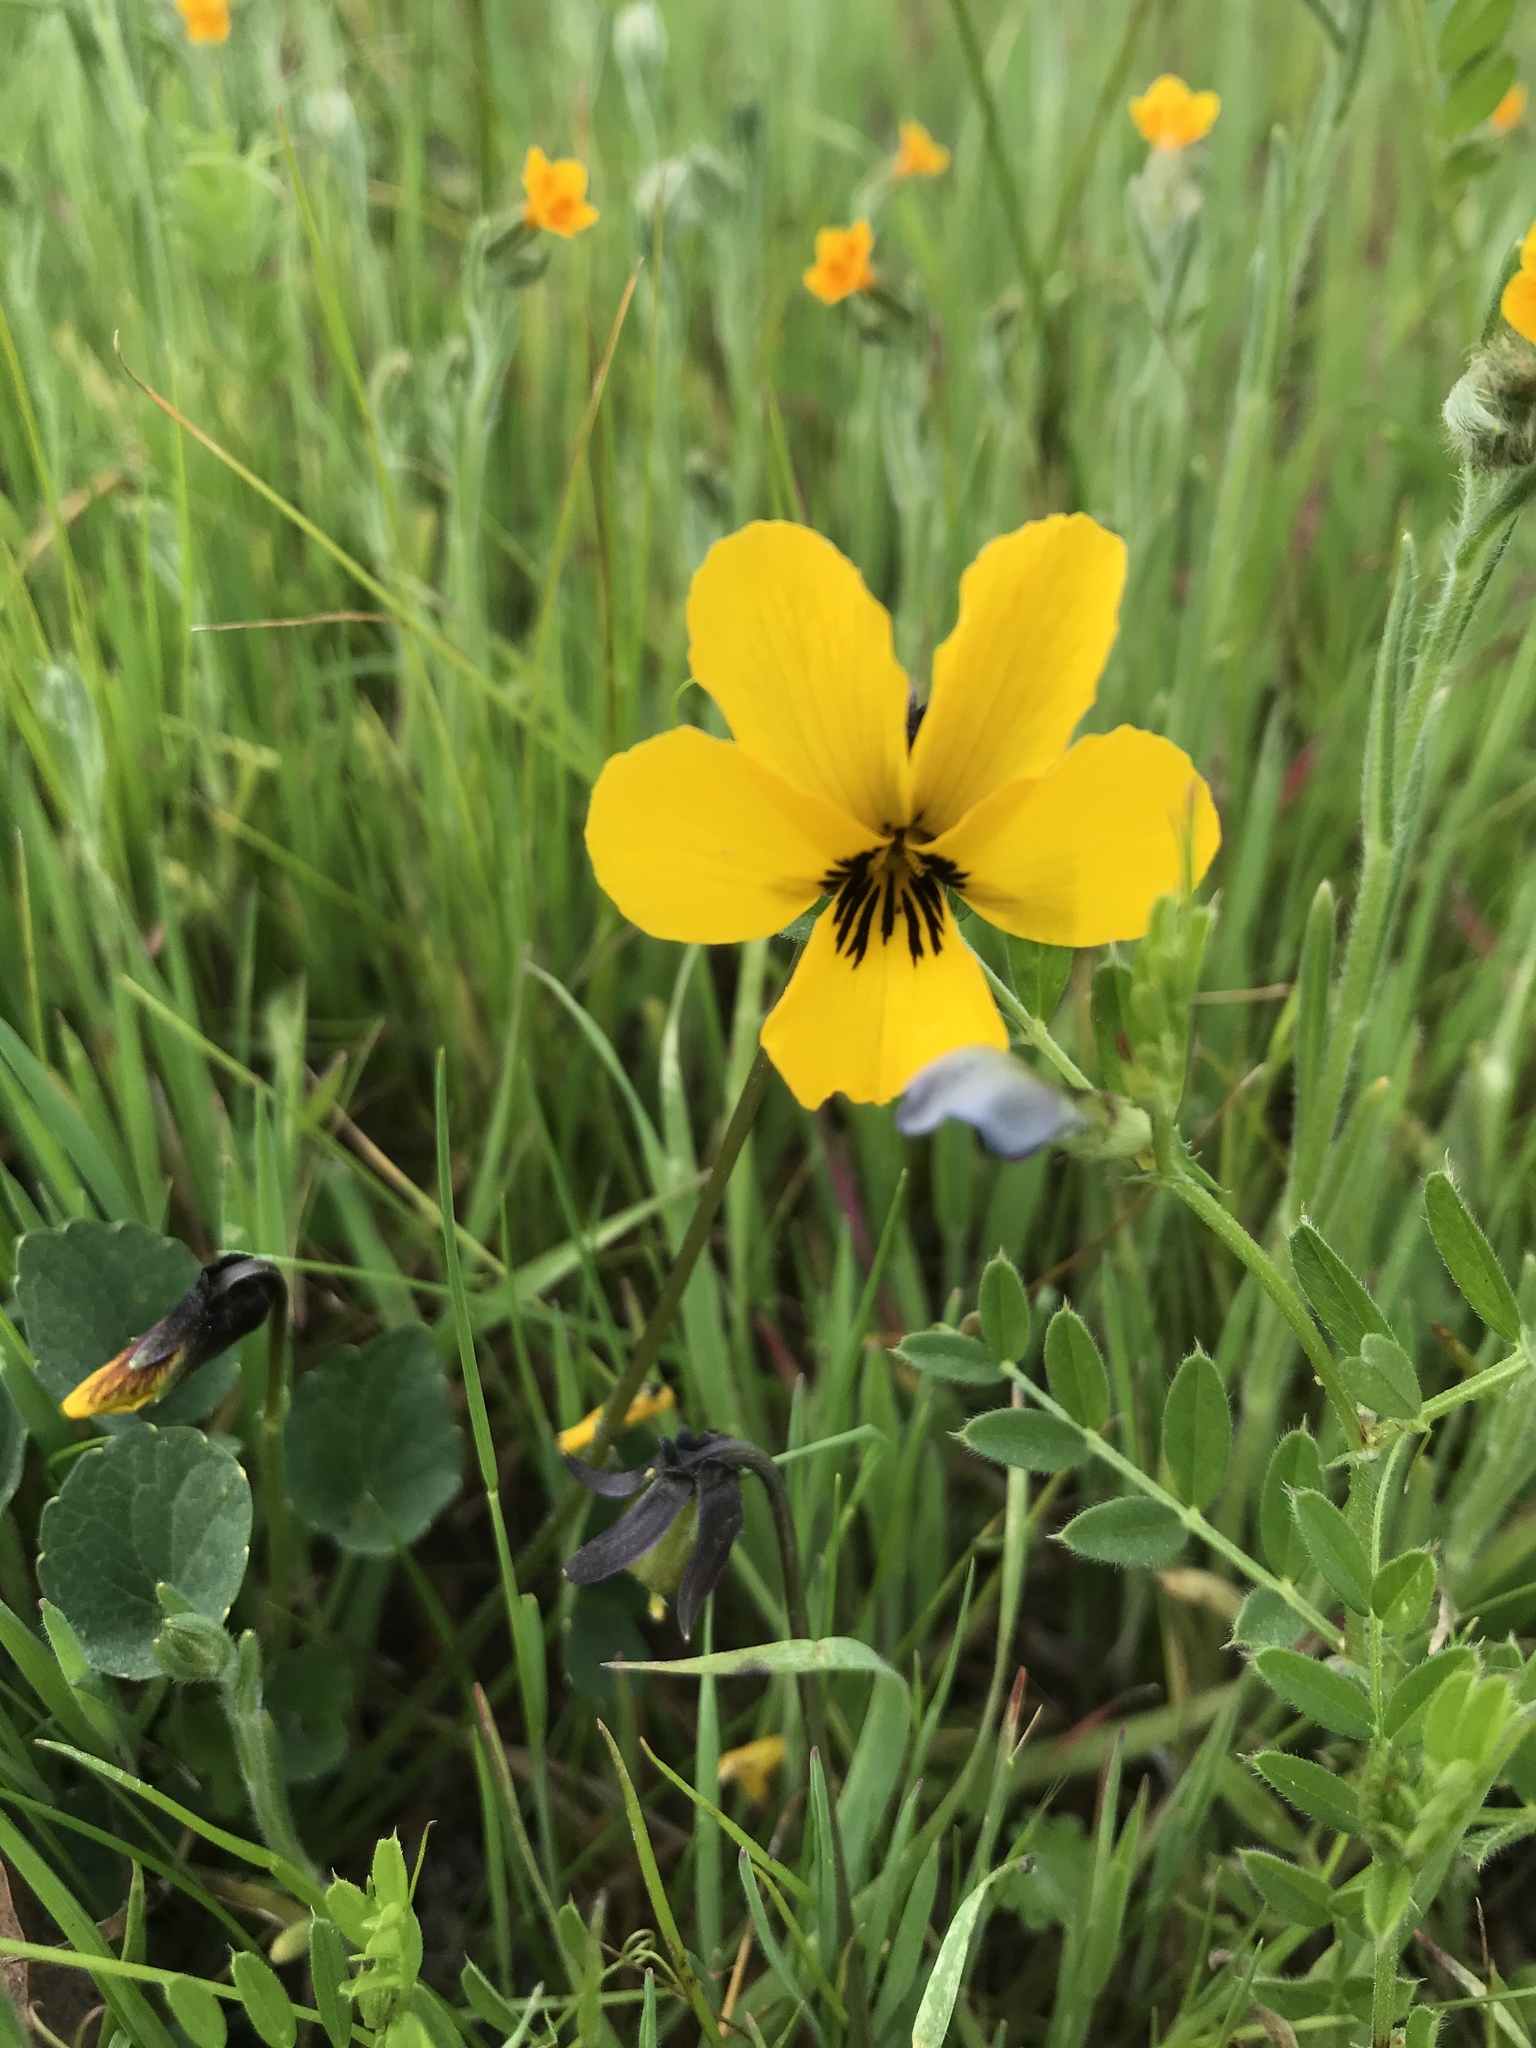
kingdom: Plantae
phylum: Tracheophyta
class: Magnoliopsida
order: Malpighiales
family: Violaceae
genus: Viola
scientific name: Viola pedunculata
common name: California golden violet
